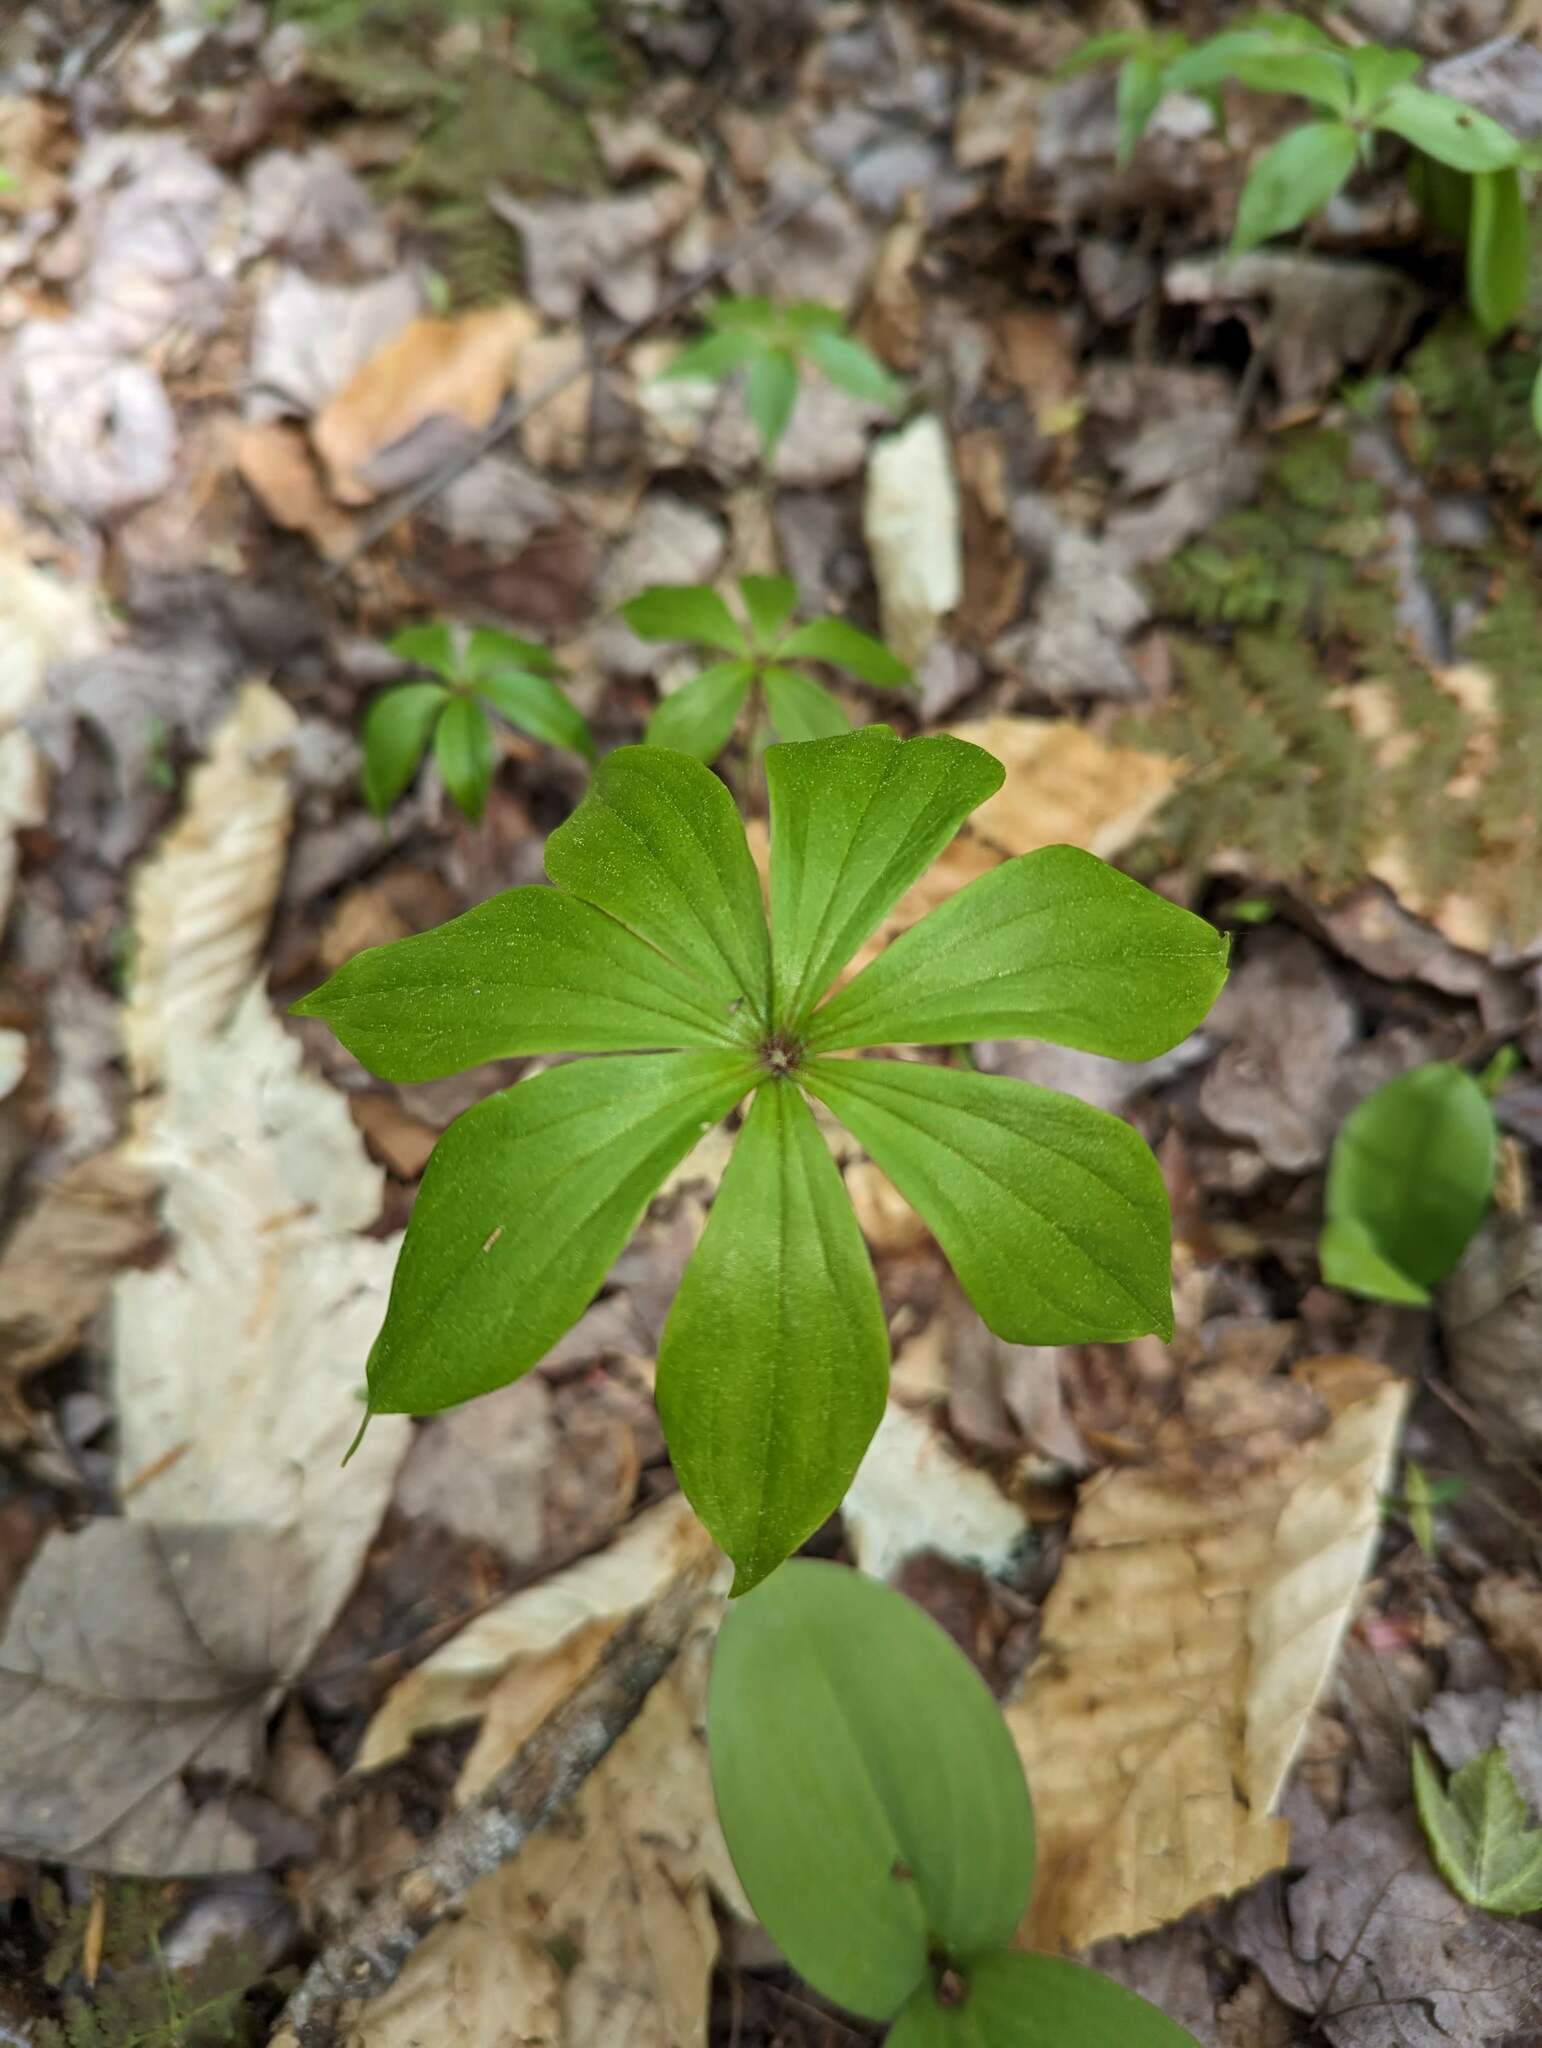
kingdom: Plantae
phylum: Tracheophyta
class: Liliopsida
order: Liliales
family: Liliaceae
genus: Medeola
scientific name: Medeola virginiana
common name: Indian cucumber-root
